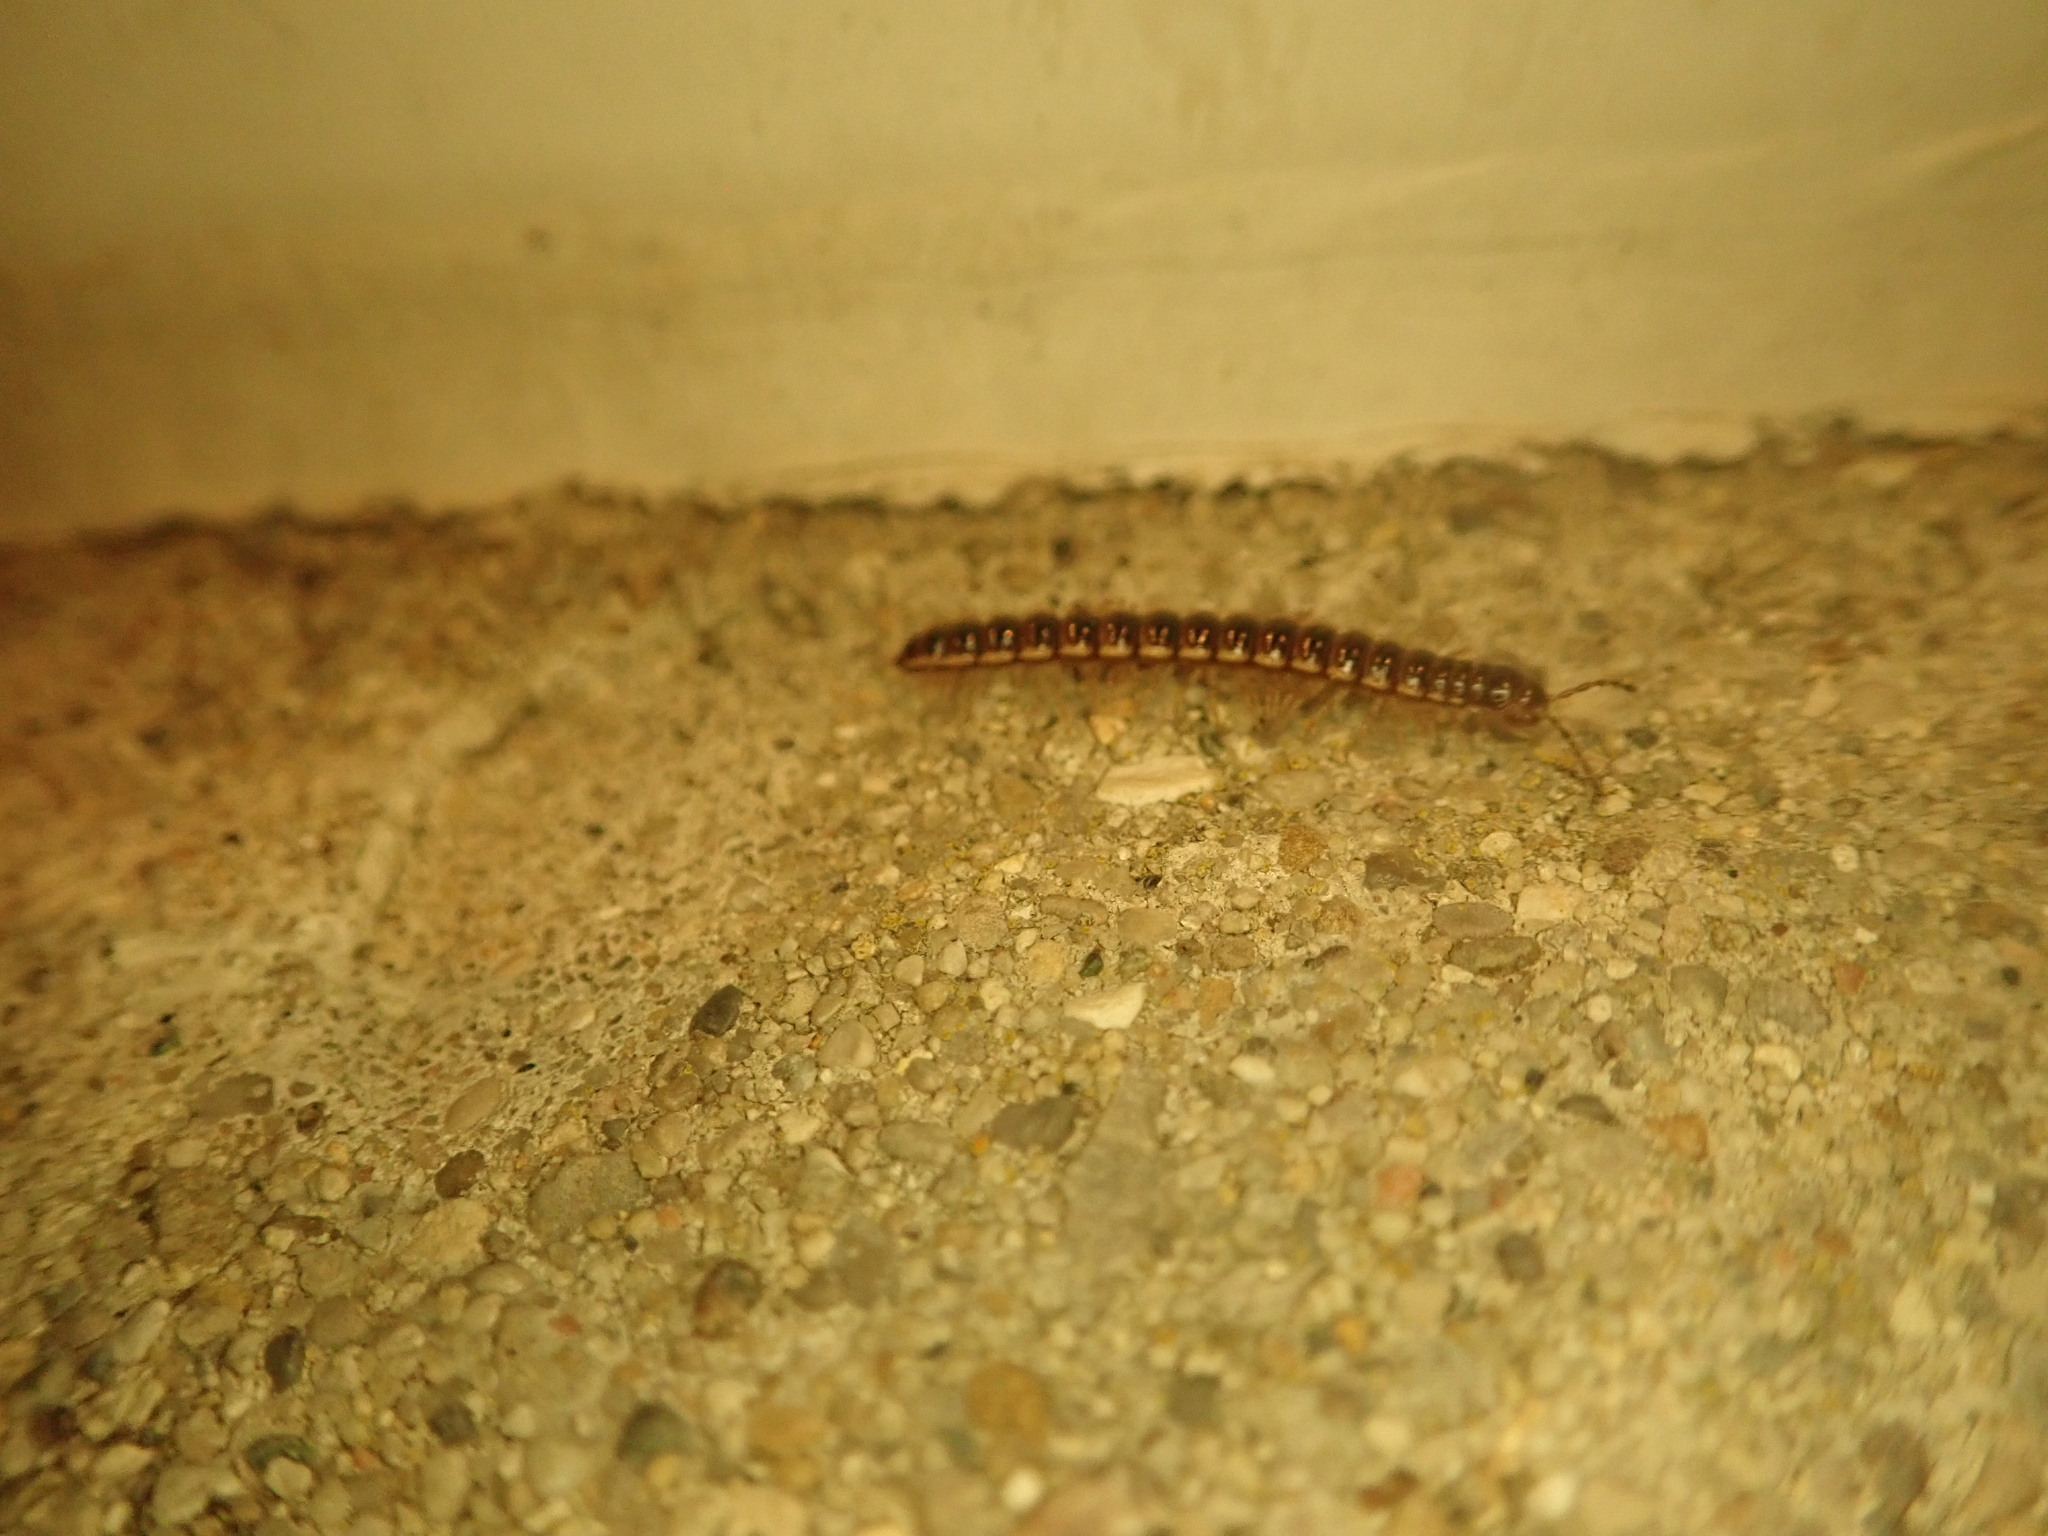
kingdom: Animalia
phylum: Arthropoda
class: Diplopoda
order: Polydesmida
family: Paradoxosomatidae
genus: Oxidus
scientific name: Oxidus gracilis
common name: Greenhouse millipede
